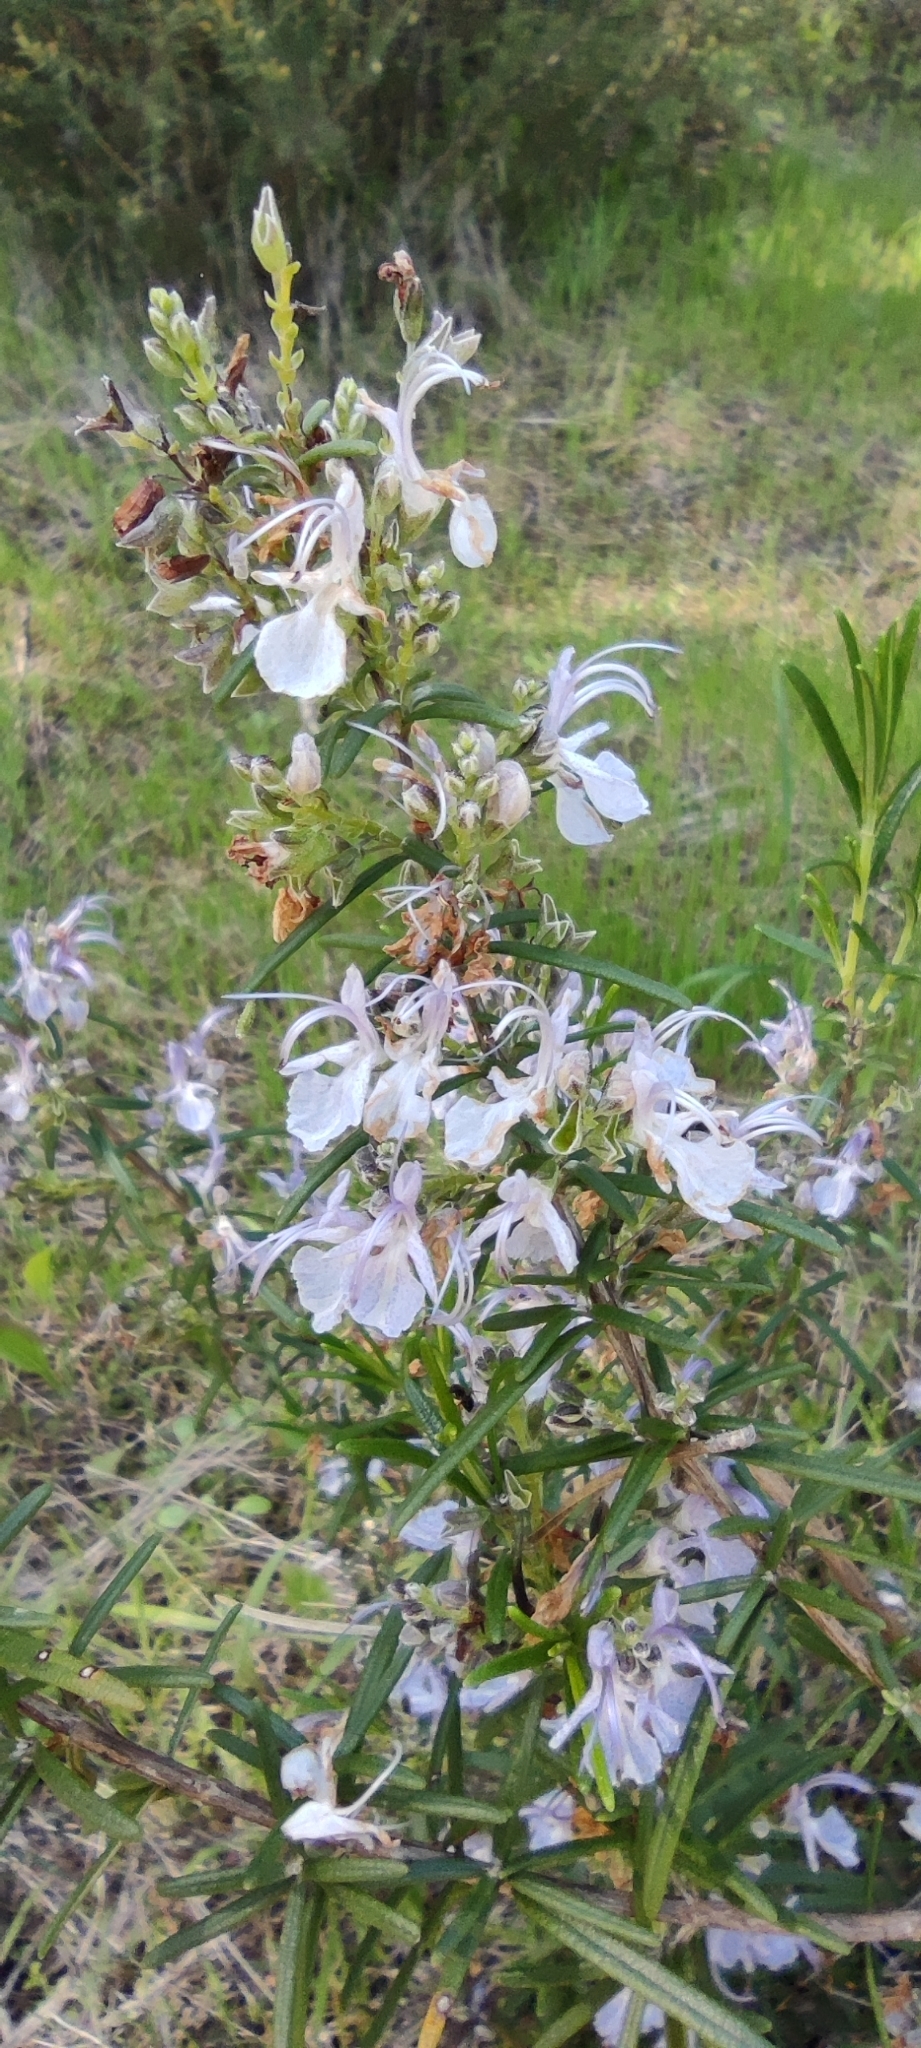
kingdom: Plantae
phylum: Tracheophyta
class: Magnoliopsida
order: Lamiales
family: Lamiaceae
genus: Salvia
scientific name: Salvia rosmarinus
